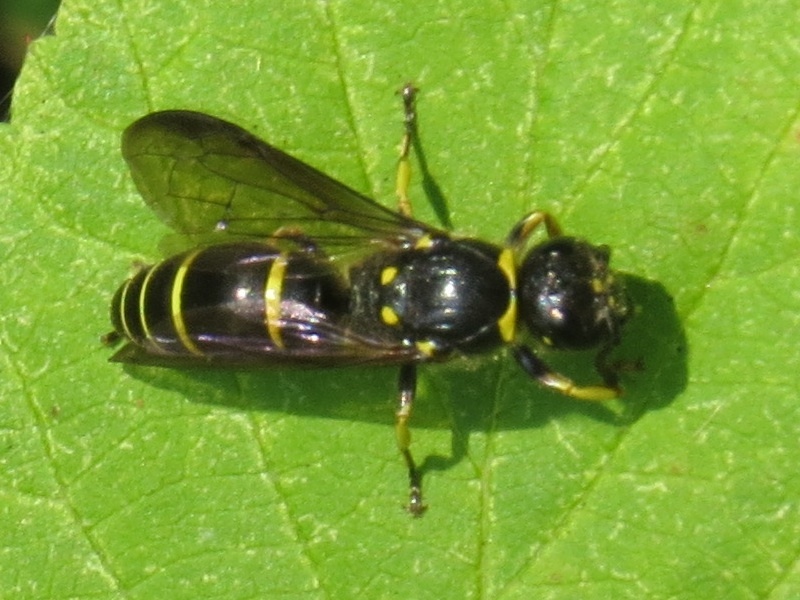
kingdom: Animalia
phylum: Arthropoda
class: Insecta
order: Hymenoptera
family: Vespidae
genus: Ancistrocerus
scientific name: Ancistrocerus
